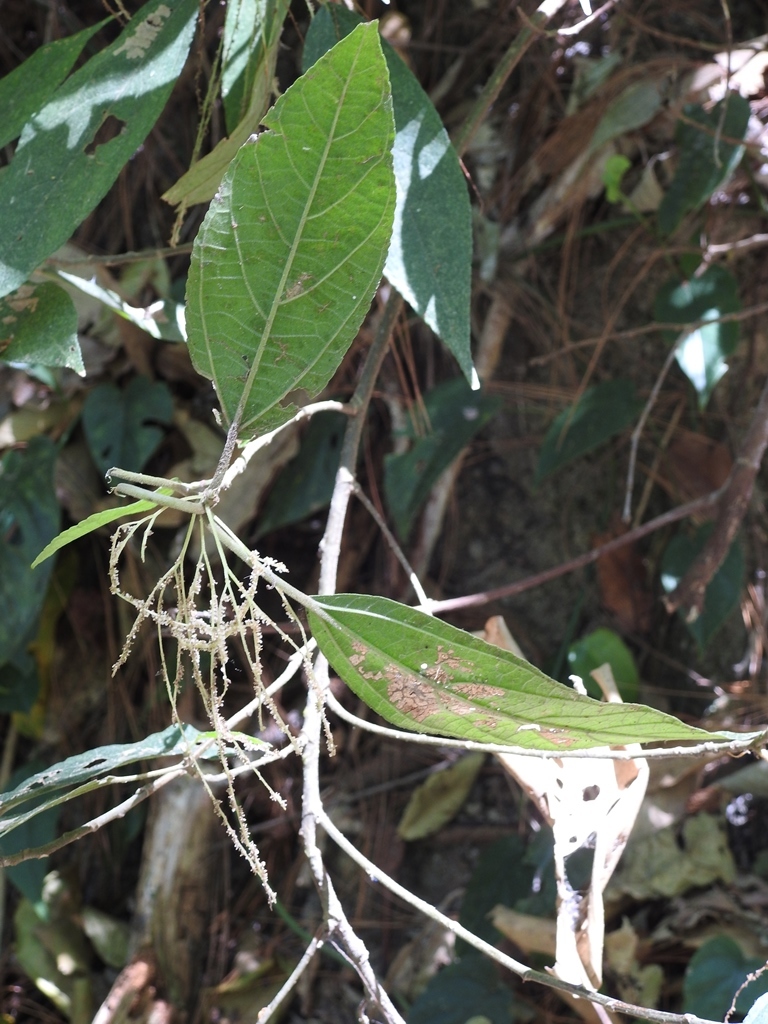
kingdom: Plantae
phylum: Tracheophyta
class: Magnoliopsida
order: Rosales
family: Urticaceae
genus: Myriocarpa
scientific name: Myriocarpa heterospicata
